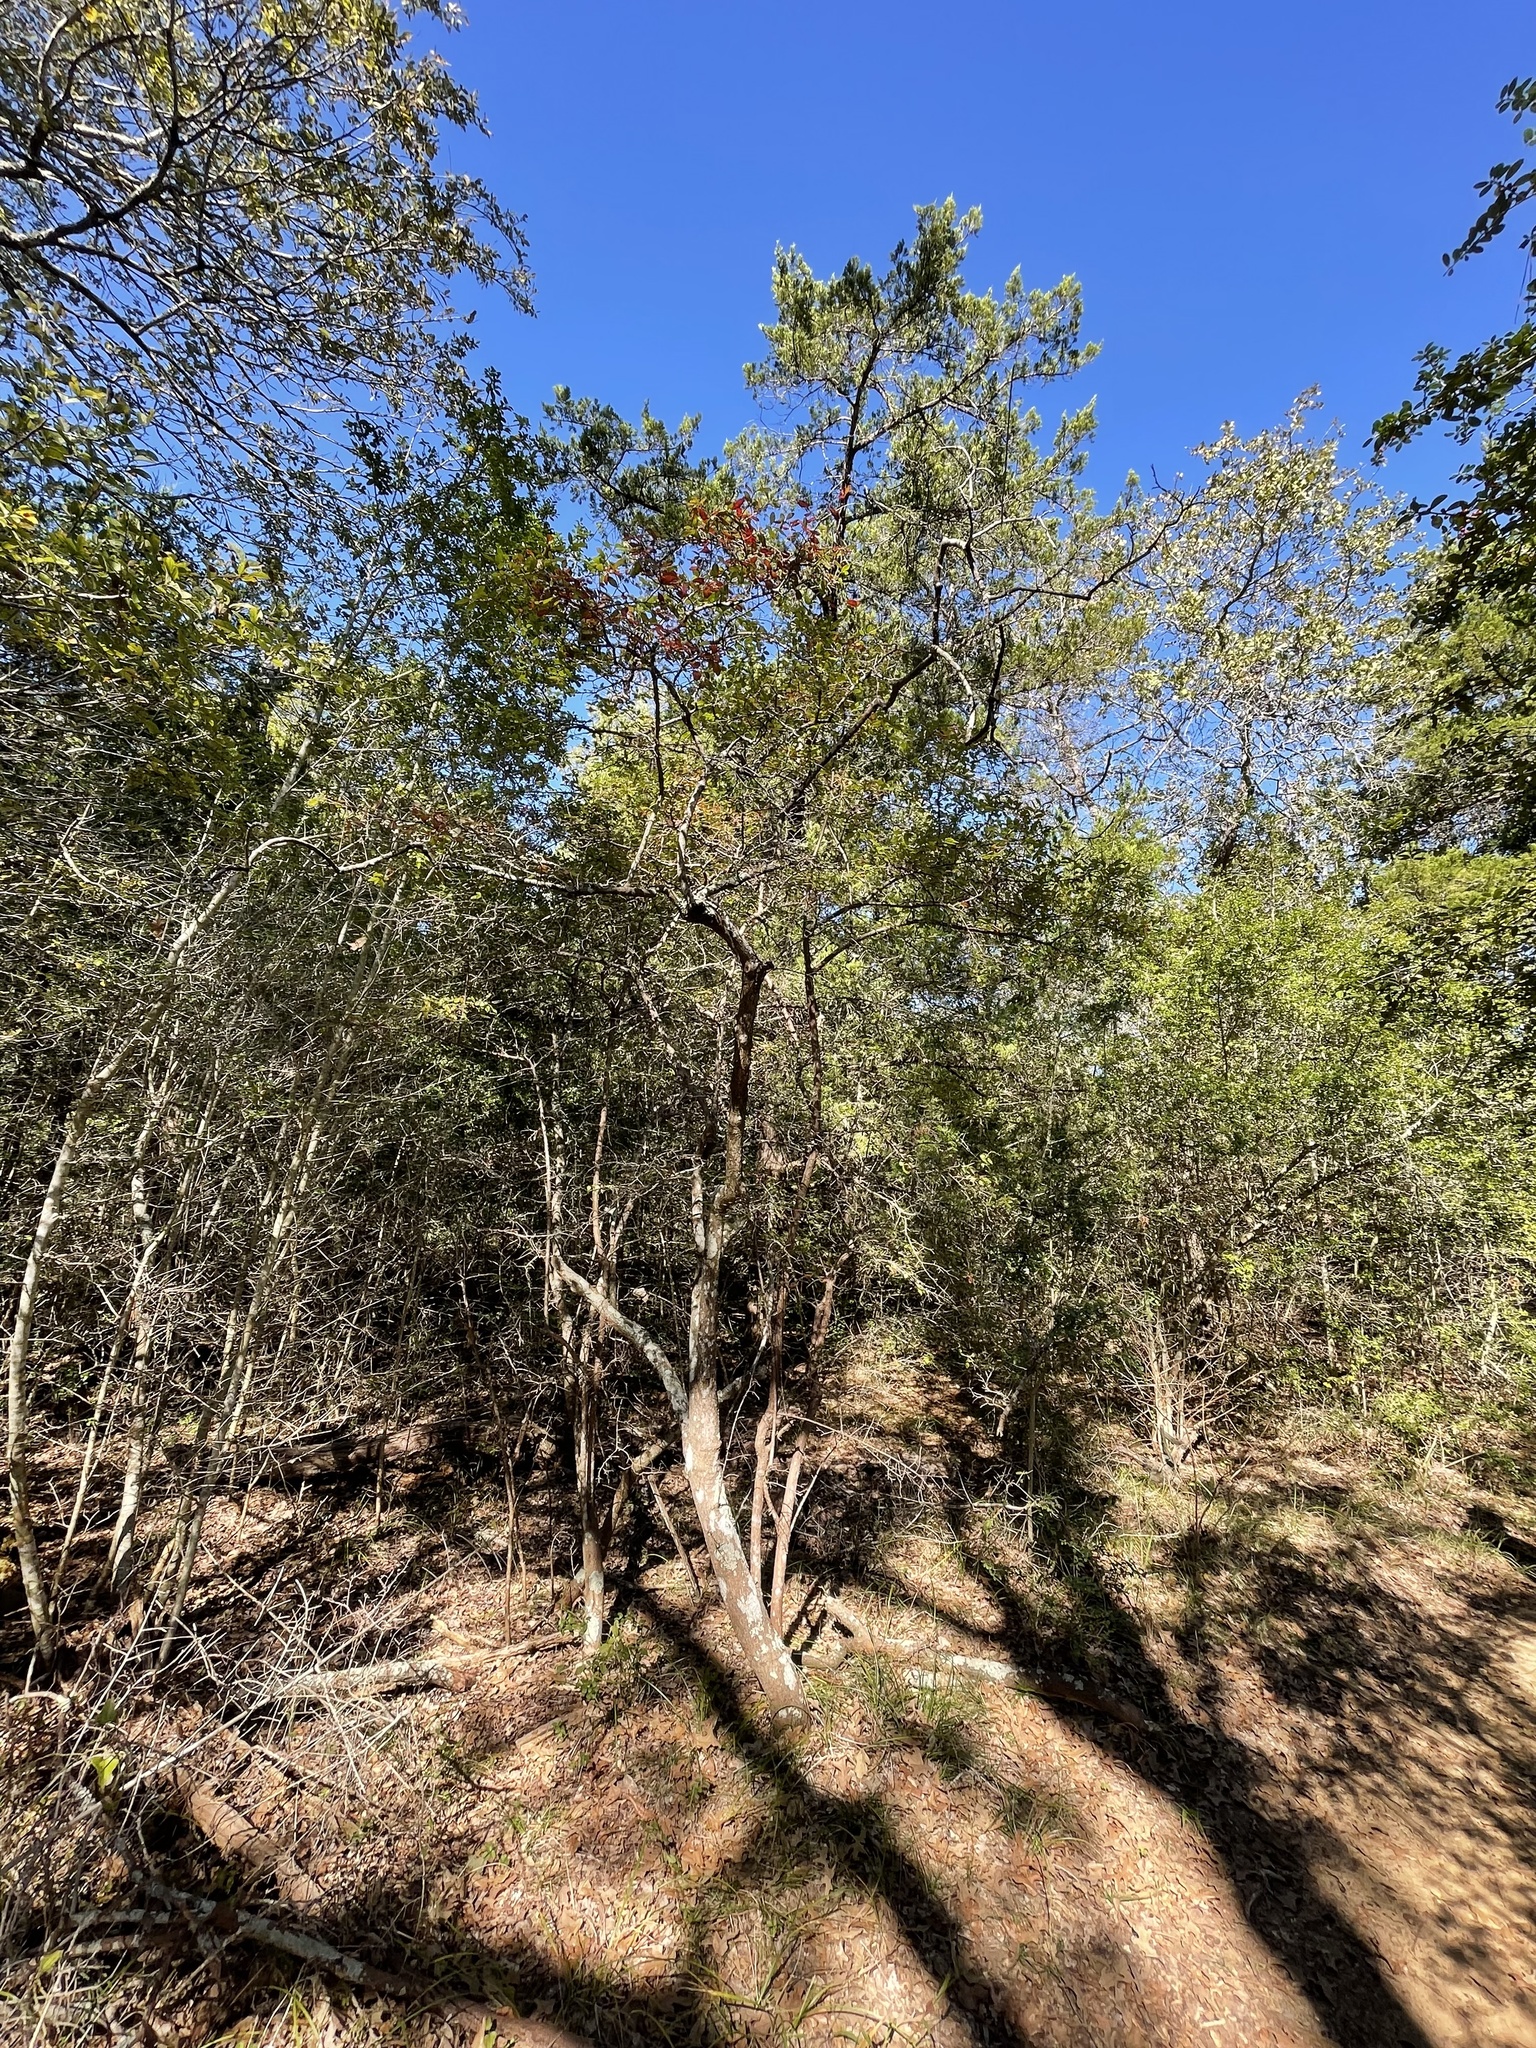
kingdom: Plantae
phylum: Tracheophyta
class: Magnoliopsida
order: Ericales
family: Ericaceae
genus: Vaccinium
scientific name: Vaccinium arboreum
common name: Farkleberry
